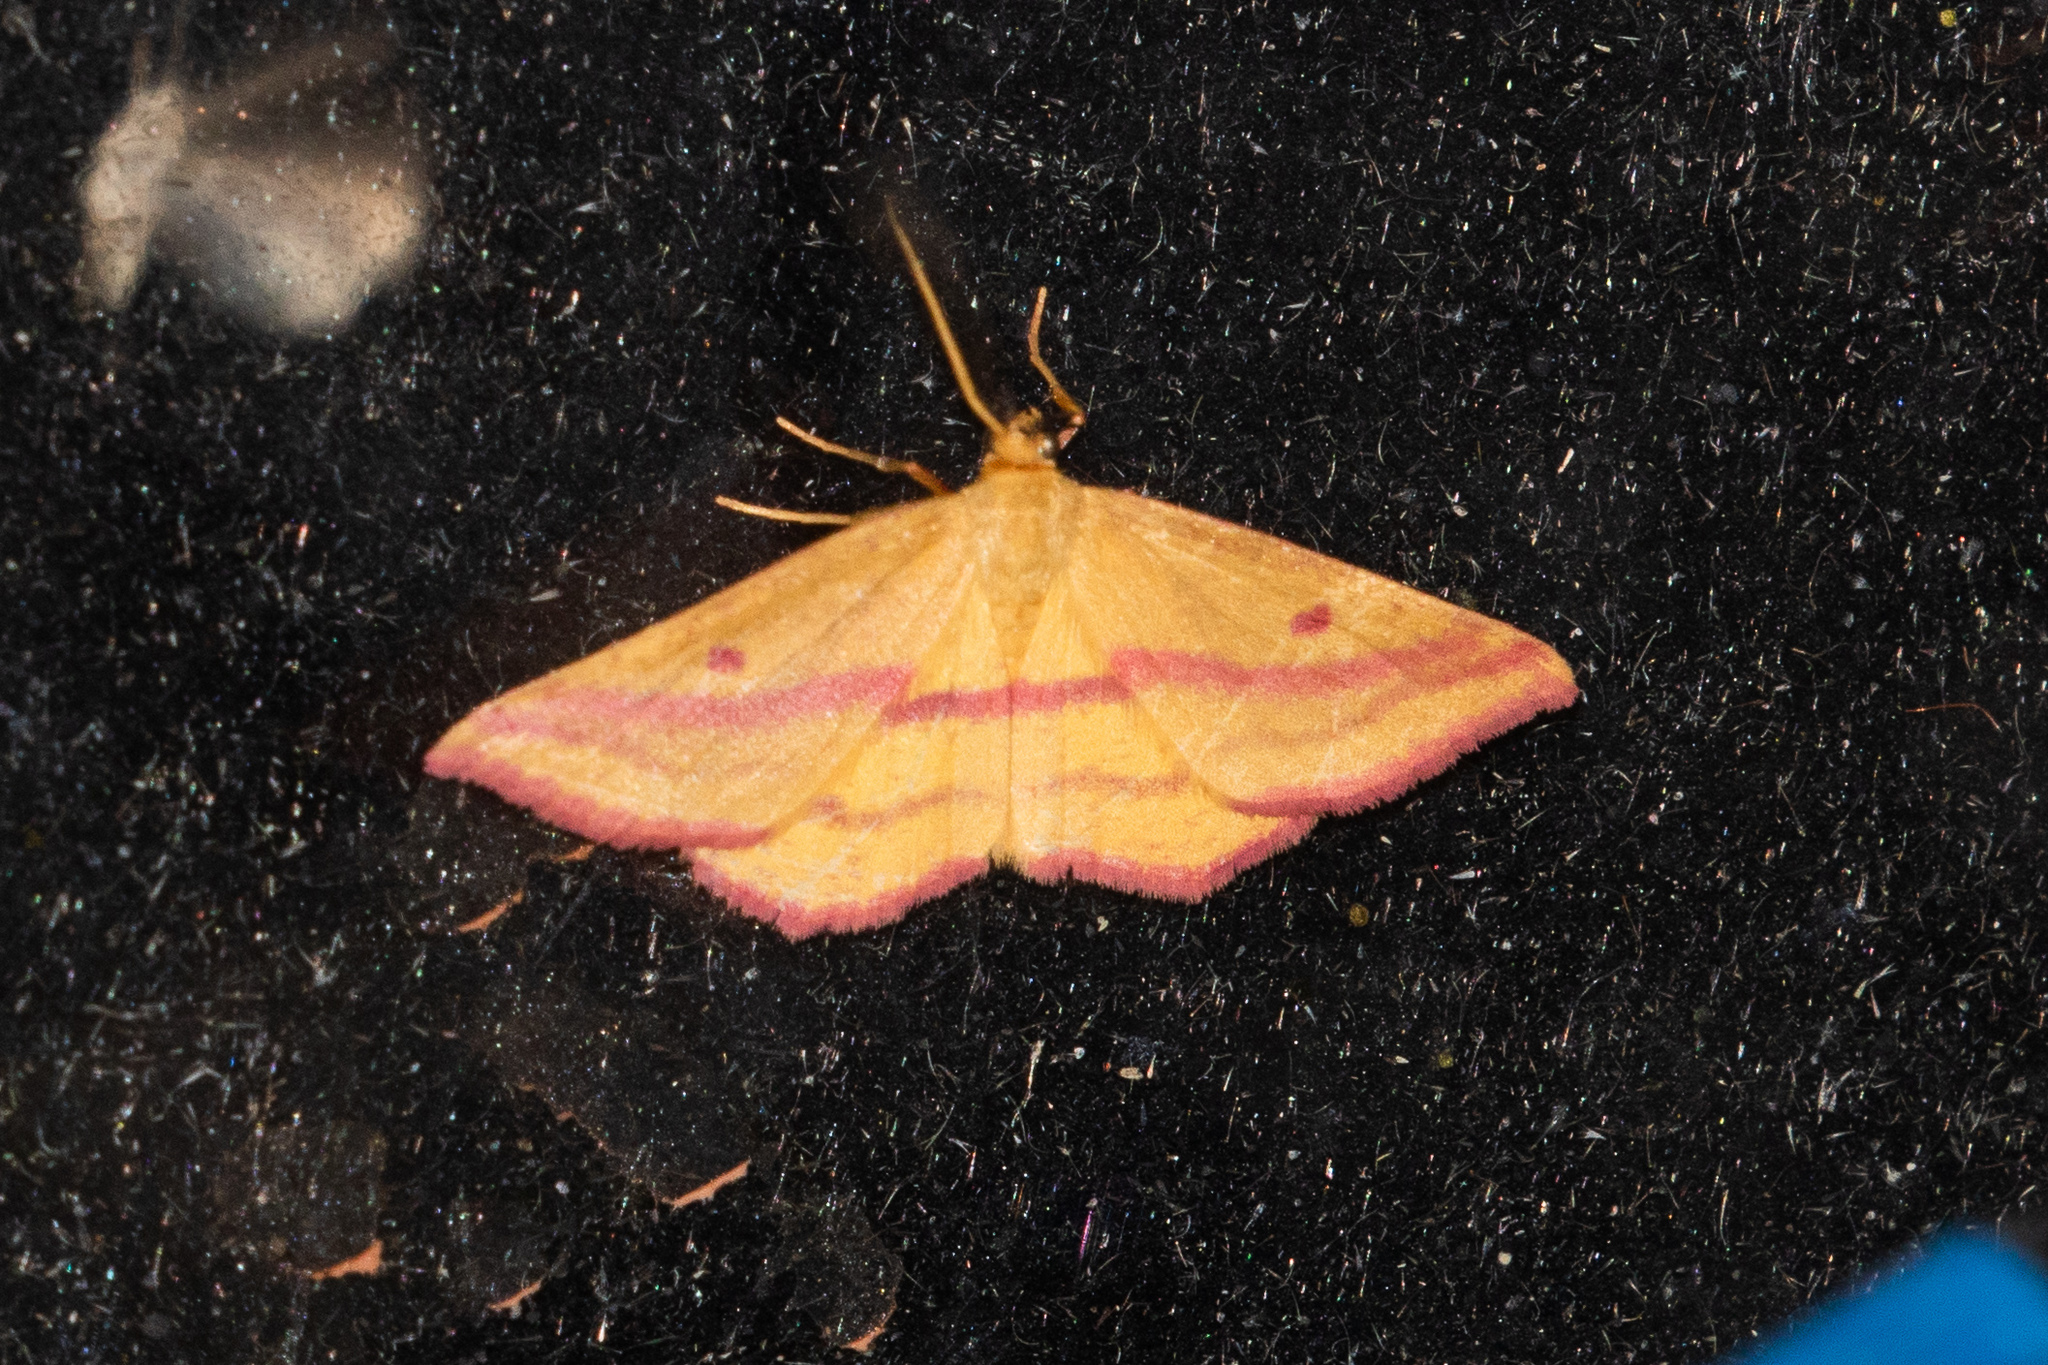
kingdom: Animalia
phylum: Arthropoda
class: Insecta
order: Lepidoptera
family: Geometridae
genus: Haematopis
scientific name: Haematopis grataria
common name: Chickweed geometer
